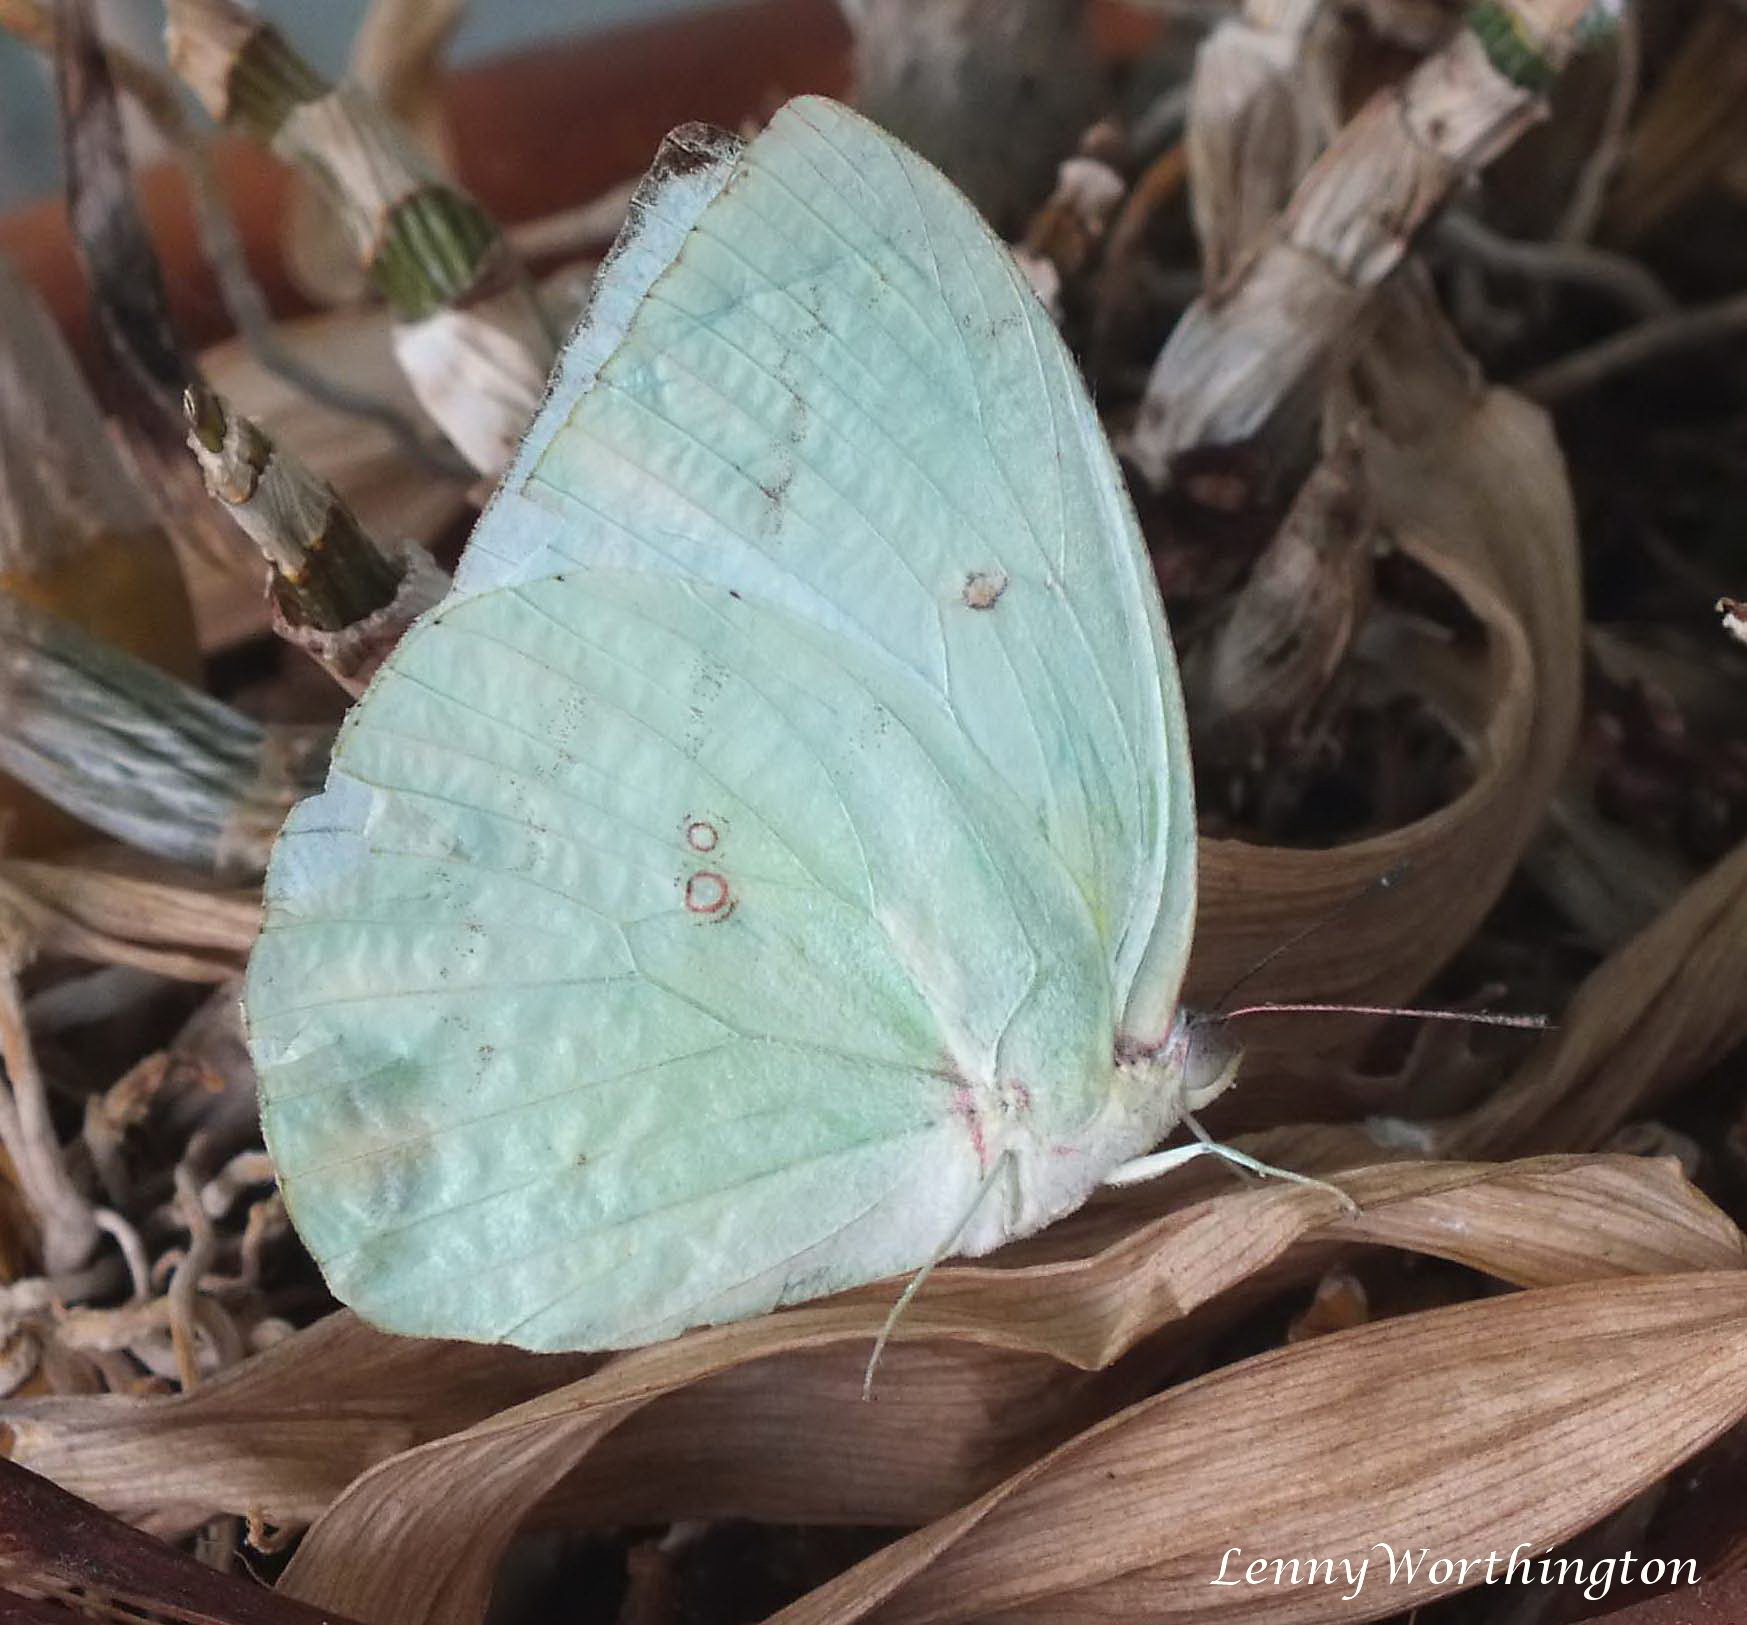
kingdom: Animalia
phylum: Arthropoda
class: Insecta
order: Lepidoptera
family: Pieridae
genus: Catopsilia
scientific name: Catopsilia pomona
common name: Common emigrant
